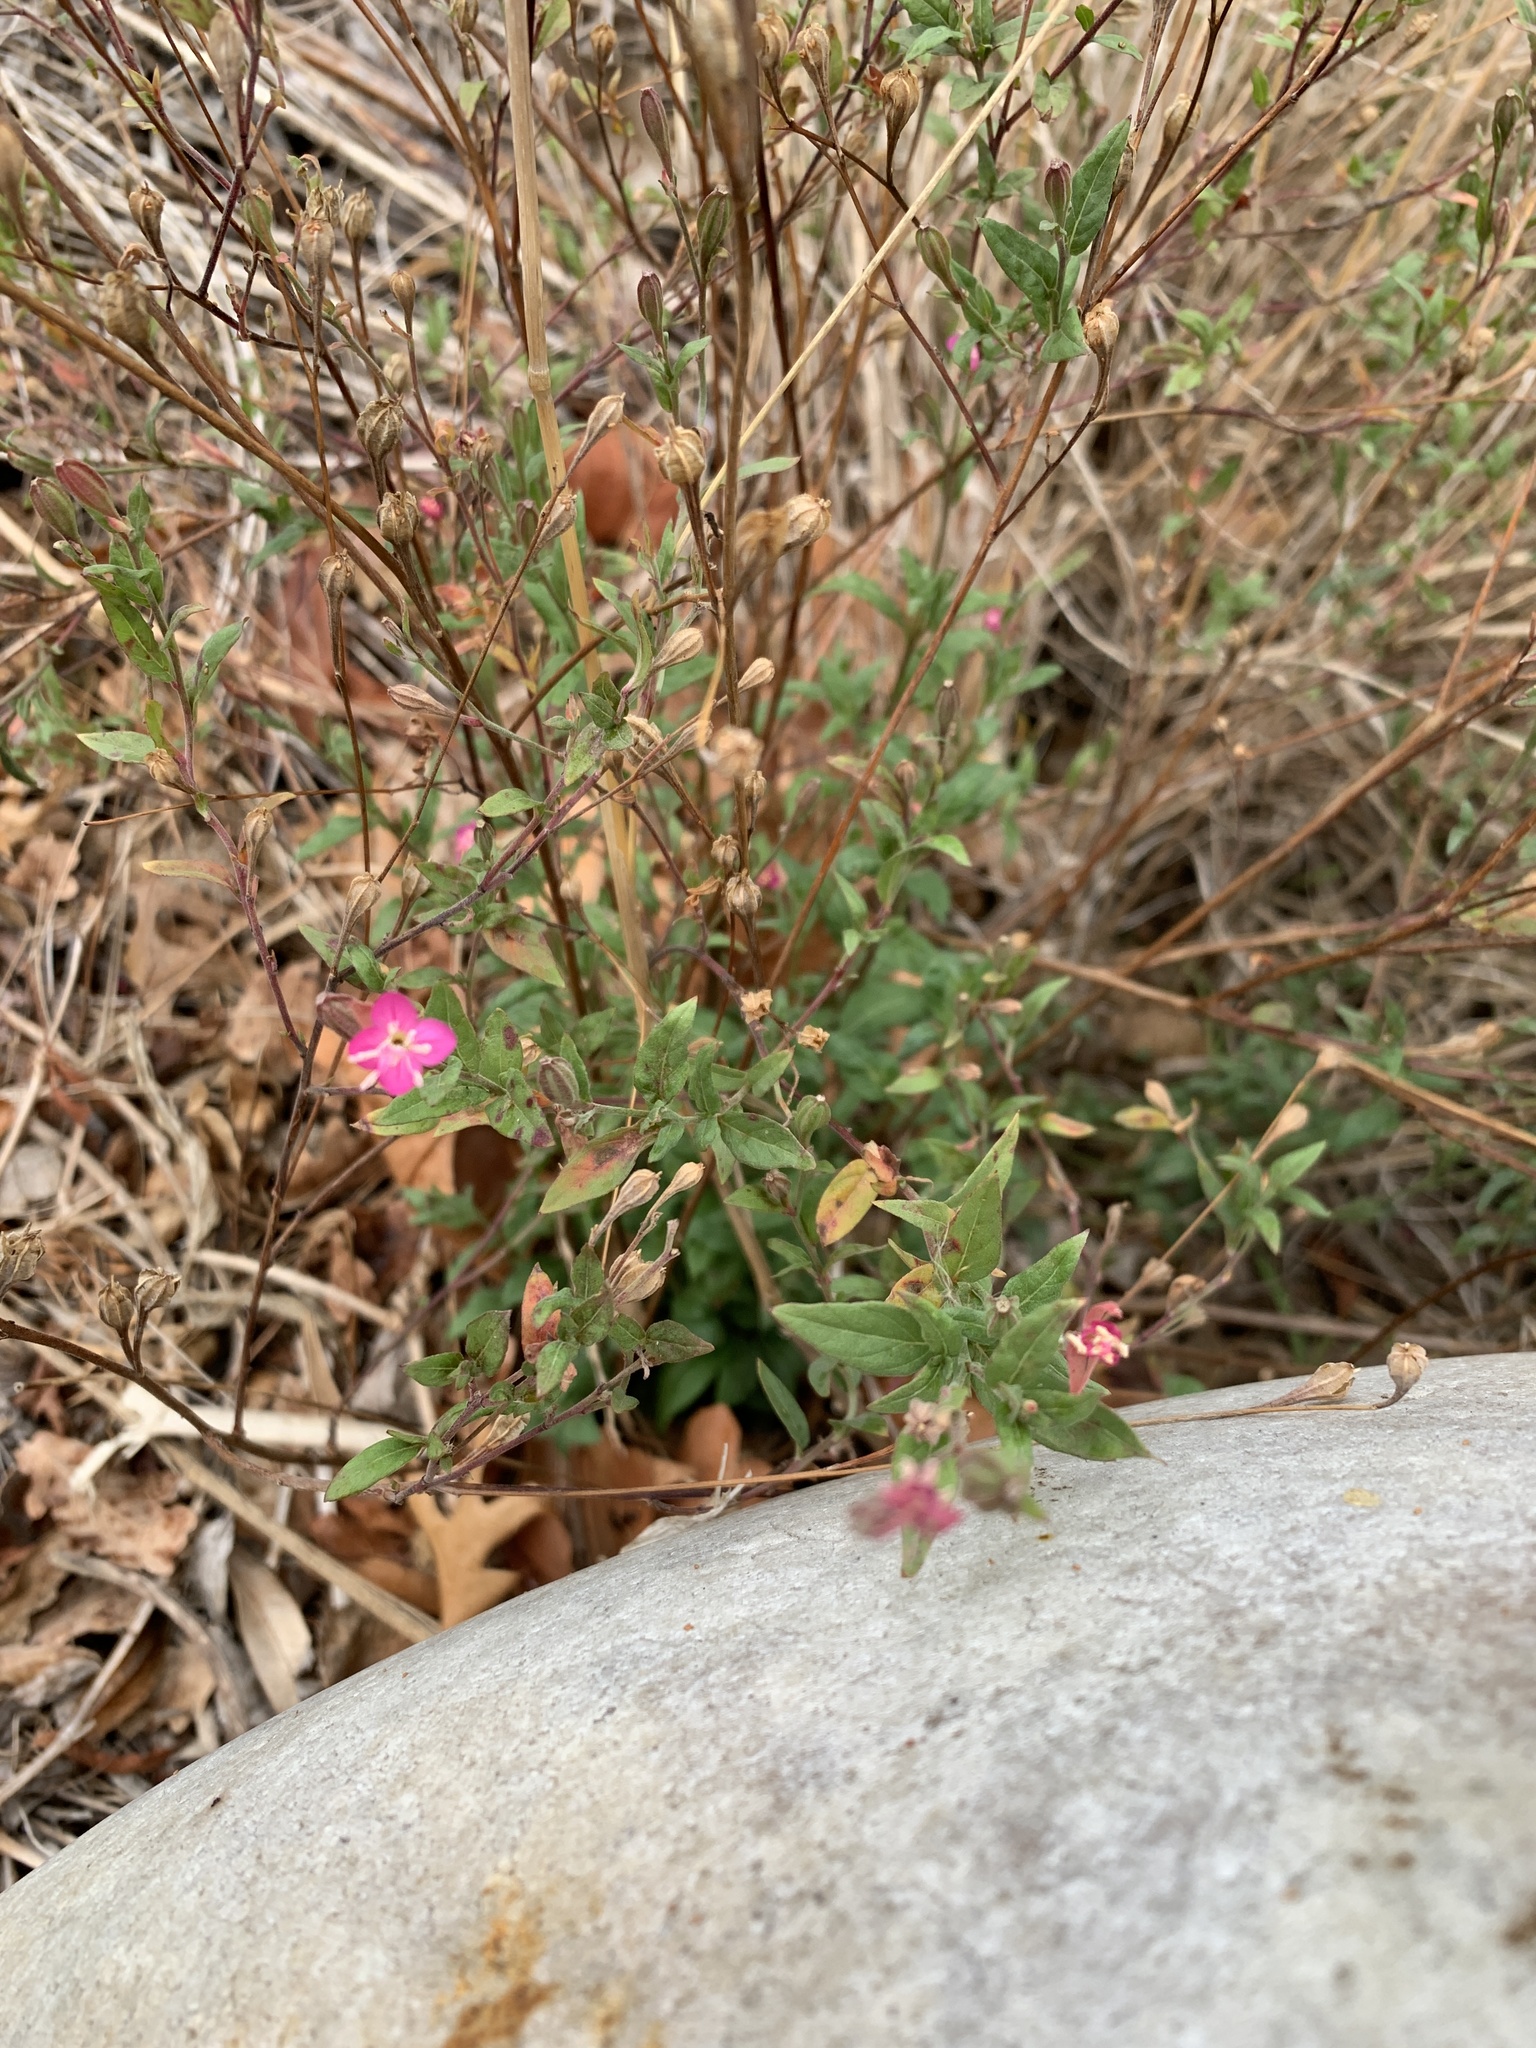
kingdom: Plantae
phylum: Tracheophyta
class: Magnoliopsida
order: Myrtales
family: Onagraceae
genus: Oenothera
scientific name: Oenothera rosea
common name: Rosy evening-primrose
